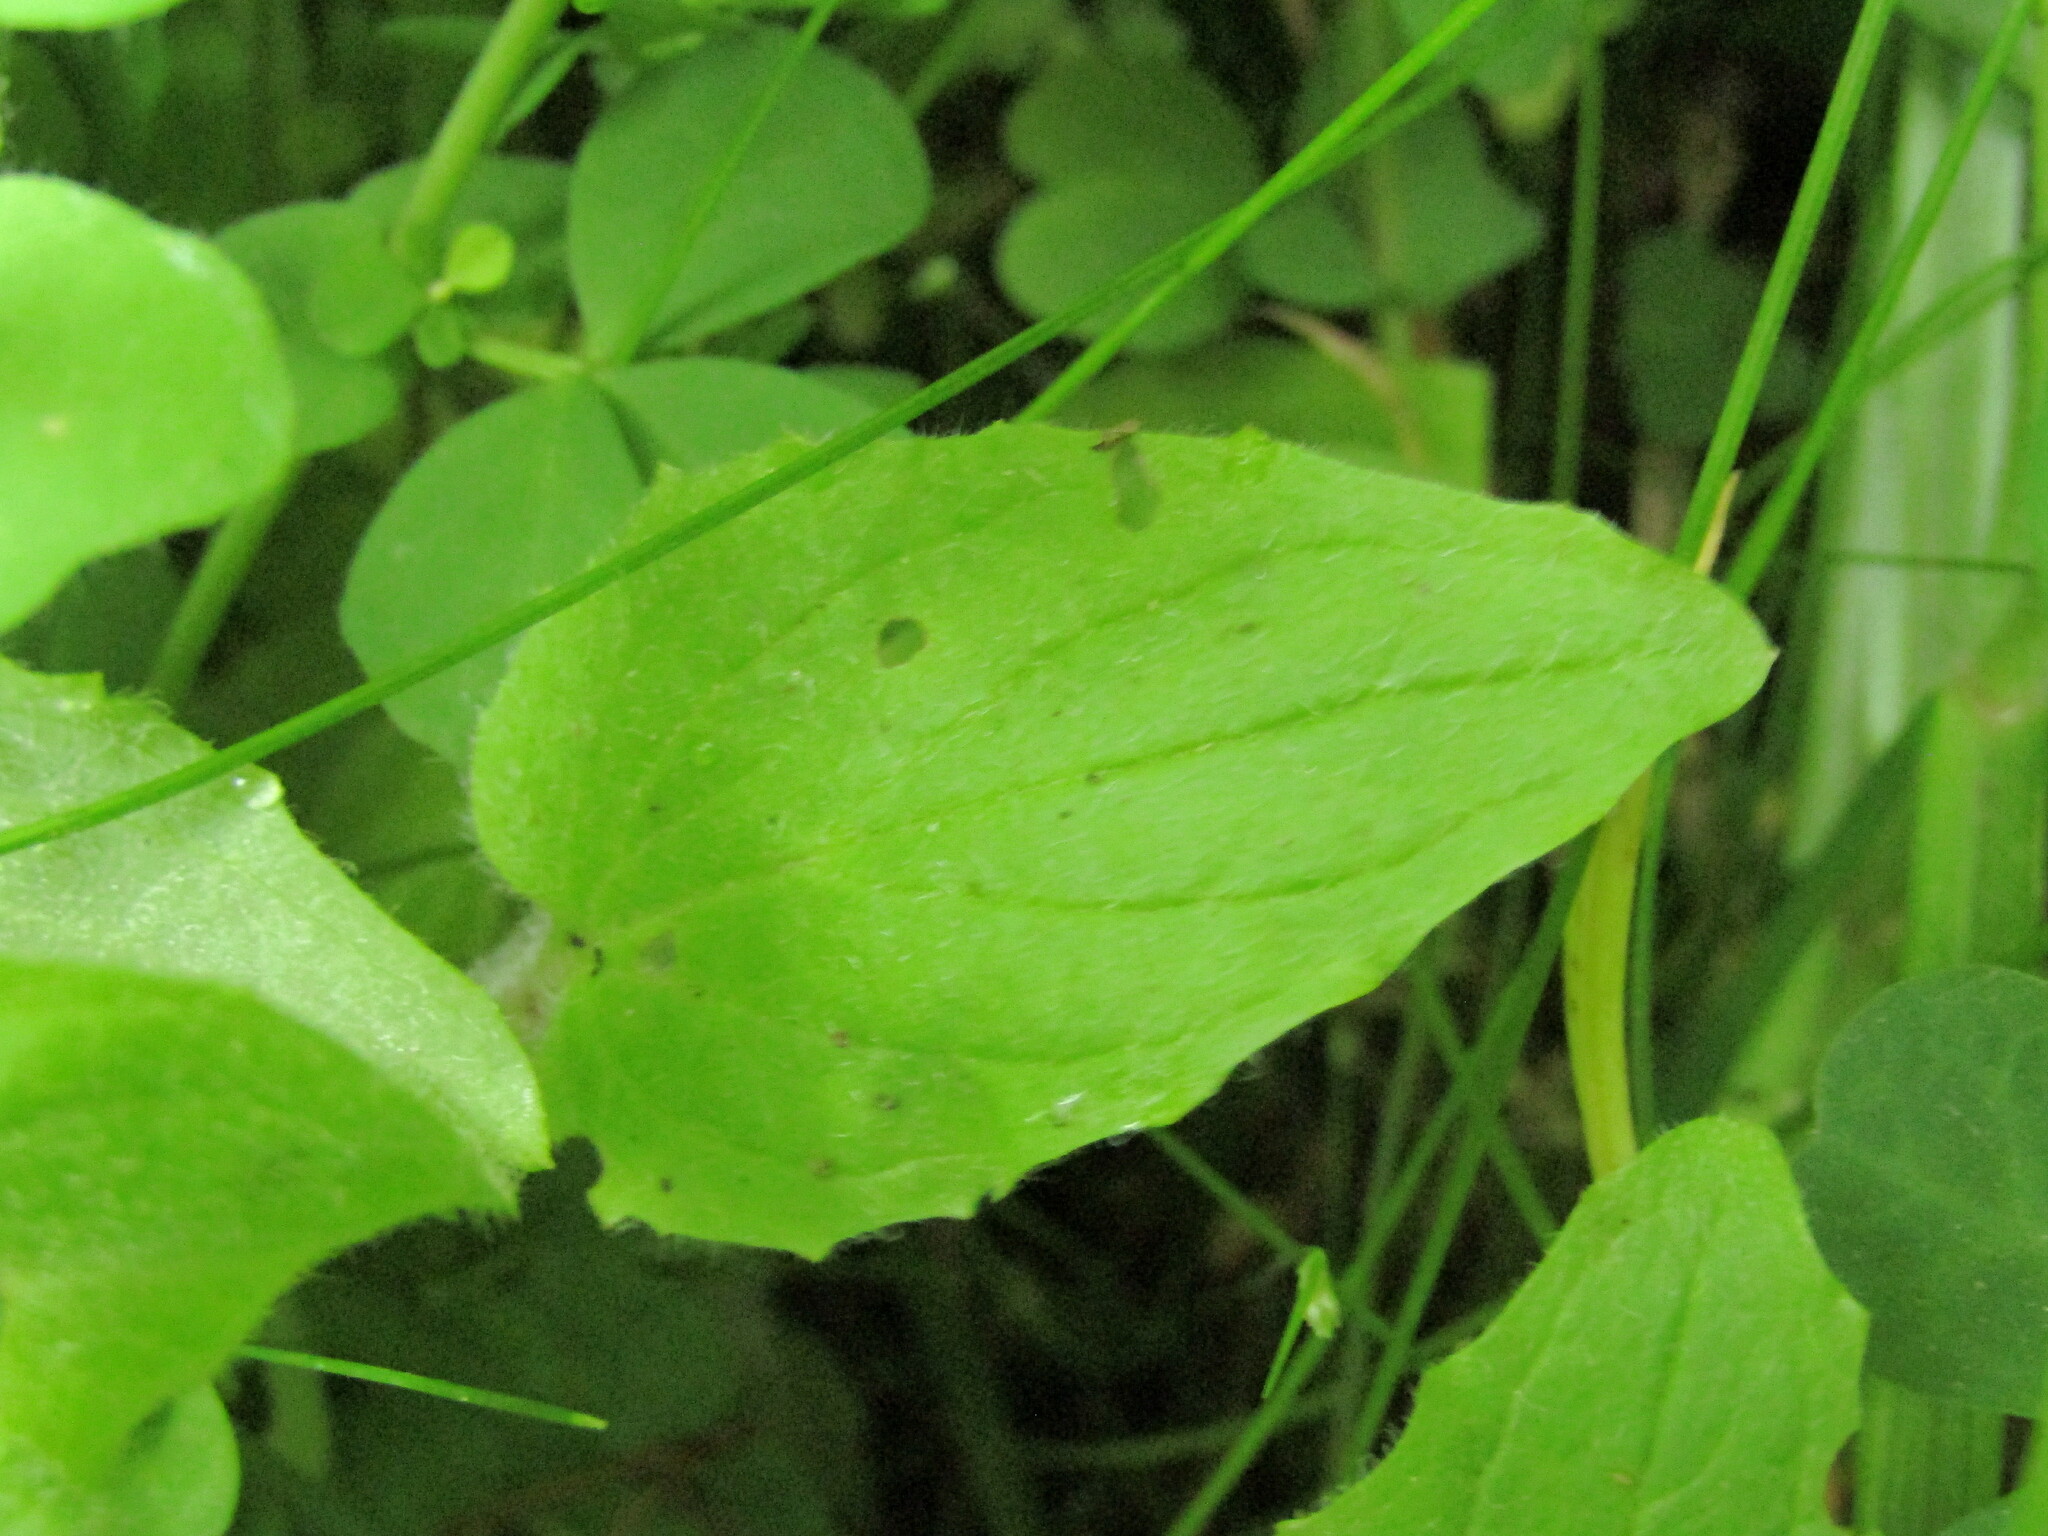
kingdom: Plantae
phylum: Tracheophyta
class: Magnoliopsida
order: Lamiales
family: Phrymaceae
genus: Erythranthe
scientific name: Erythranthe moschata
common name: Muskflower
